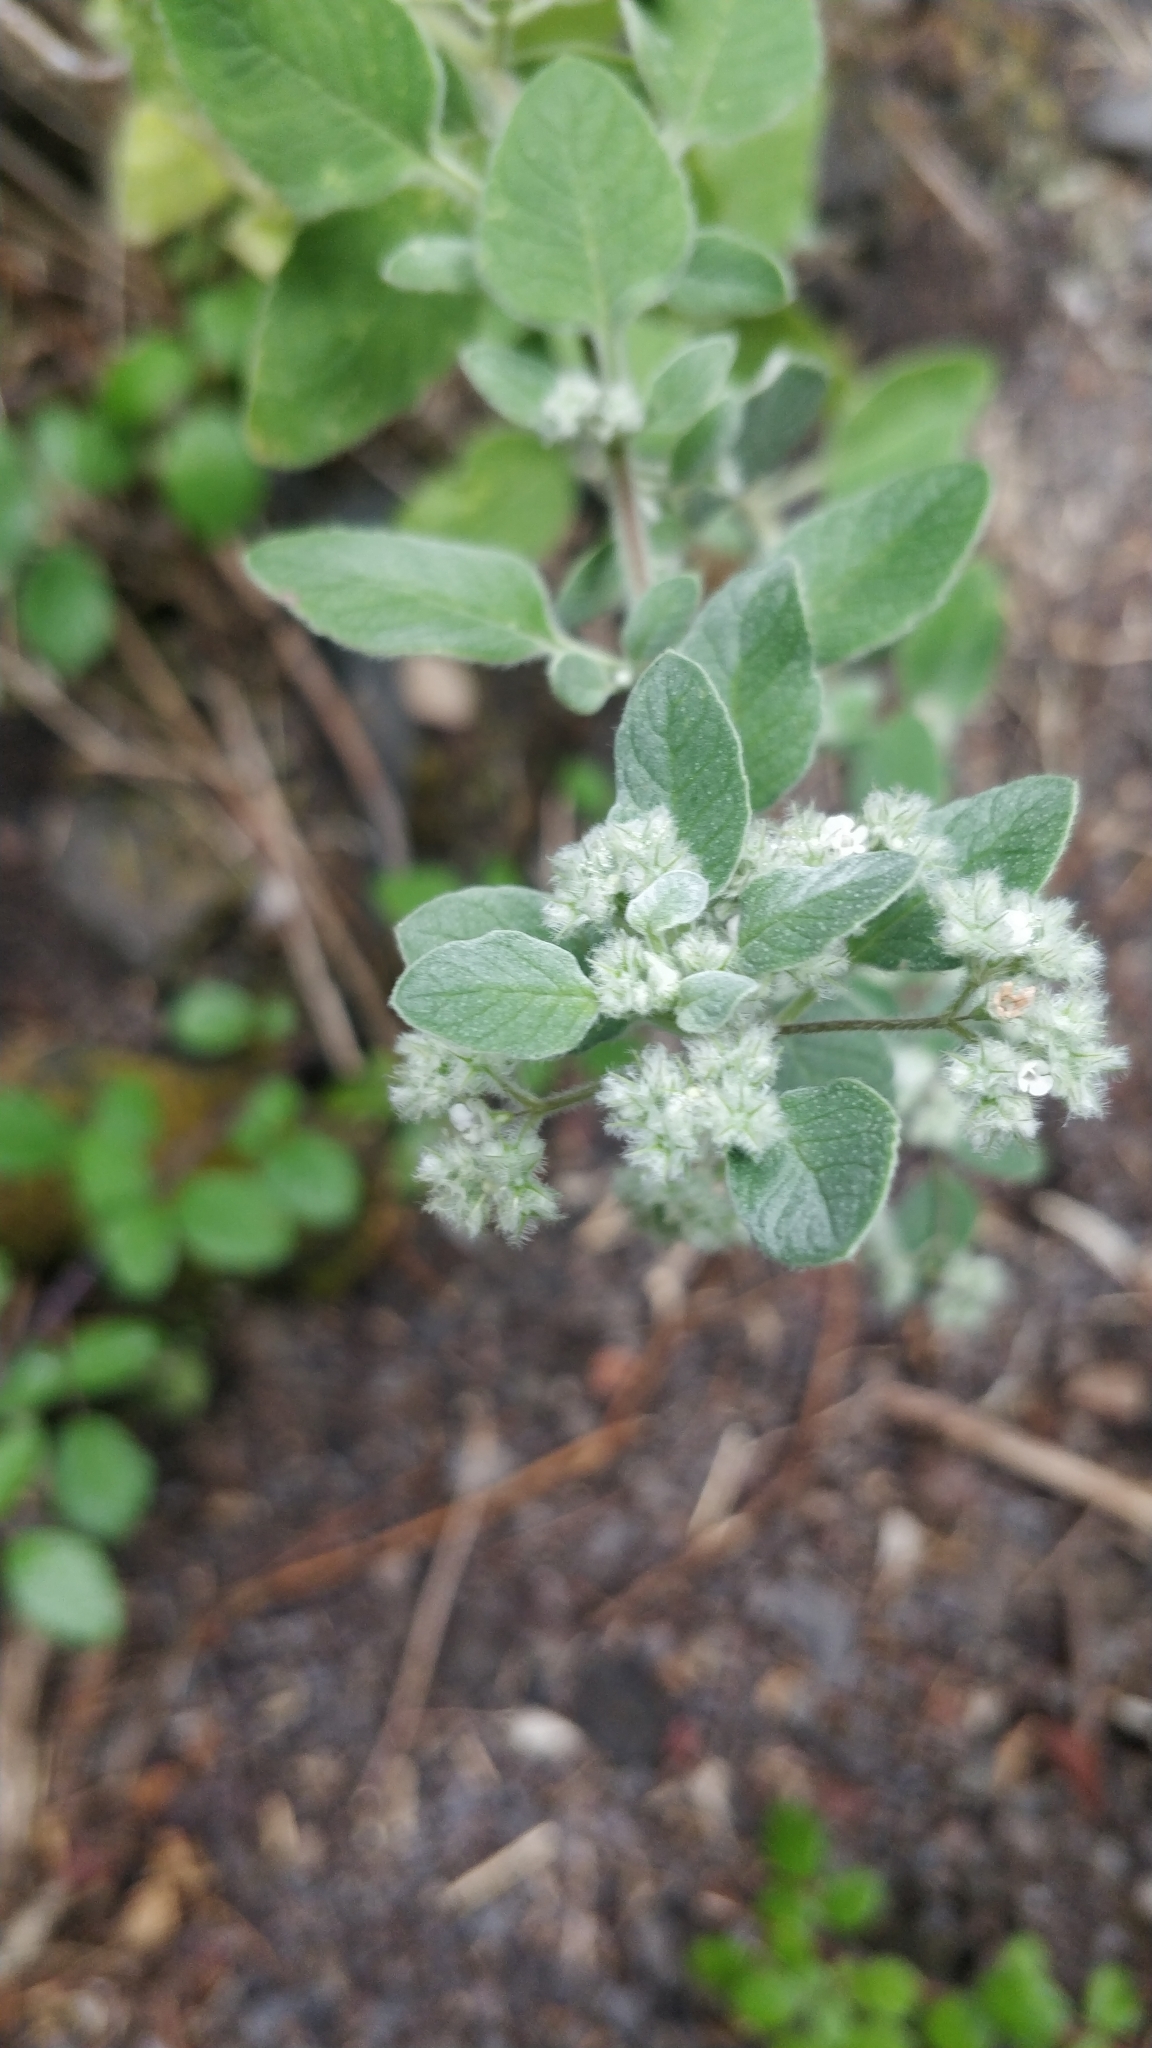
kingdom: Plantae
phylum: Tracheophyta
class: Magnoliopsida
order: Lamiales
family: Lamiaceae
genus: Bystropogon
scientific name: Bystropogon plumosus
